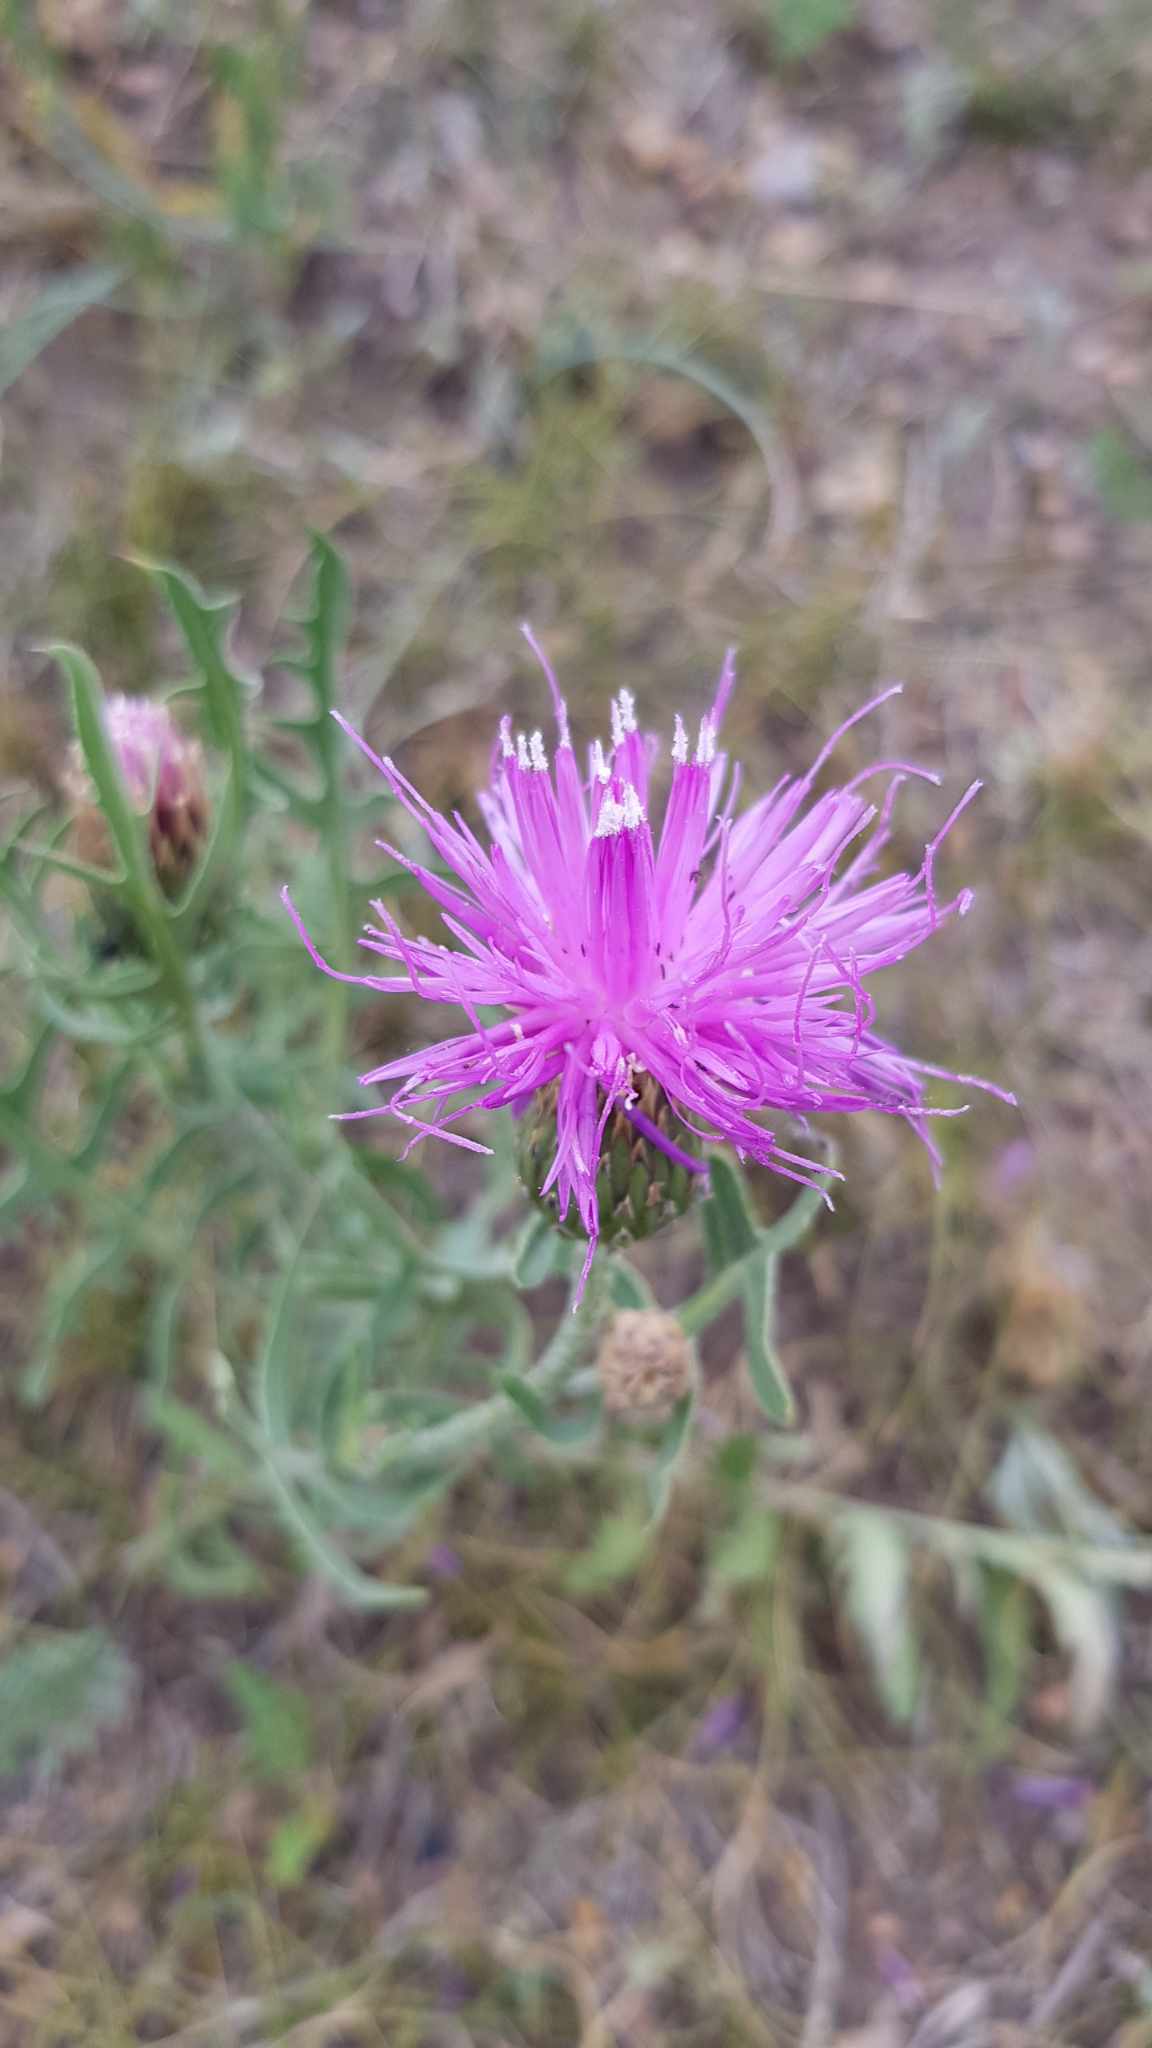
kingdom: Plantae
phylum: Tracheophyta
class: Magnoliopsida
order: Asterales
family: Asteraceae
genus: Klasea
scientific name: Klasea centauroides
